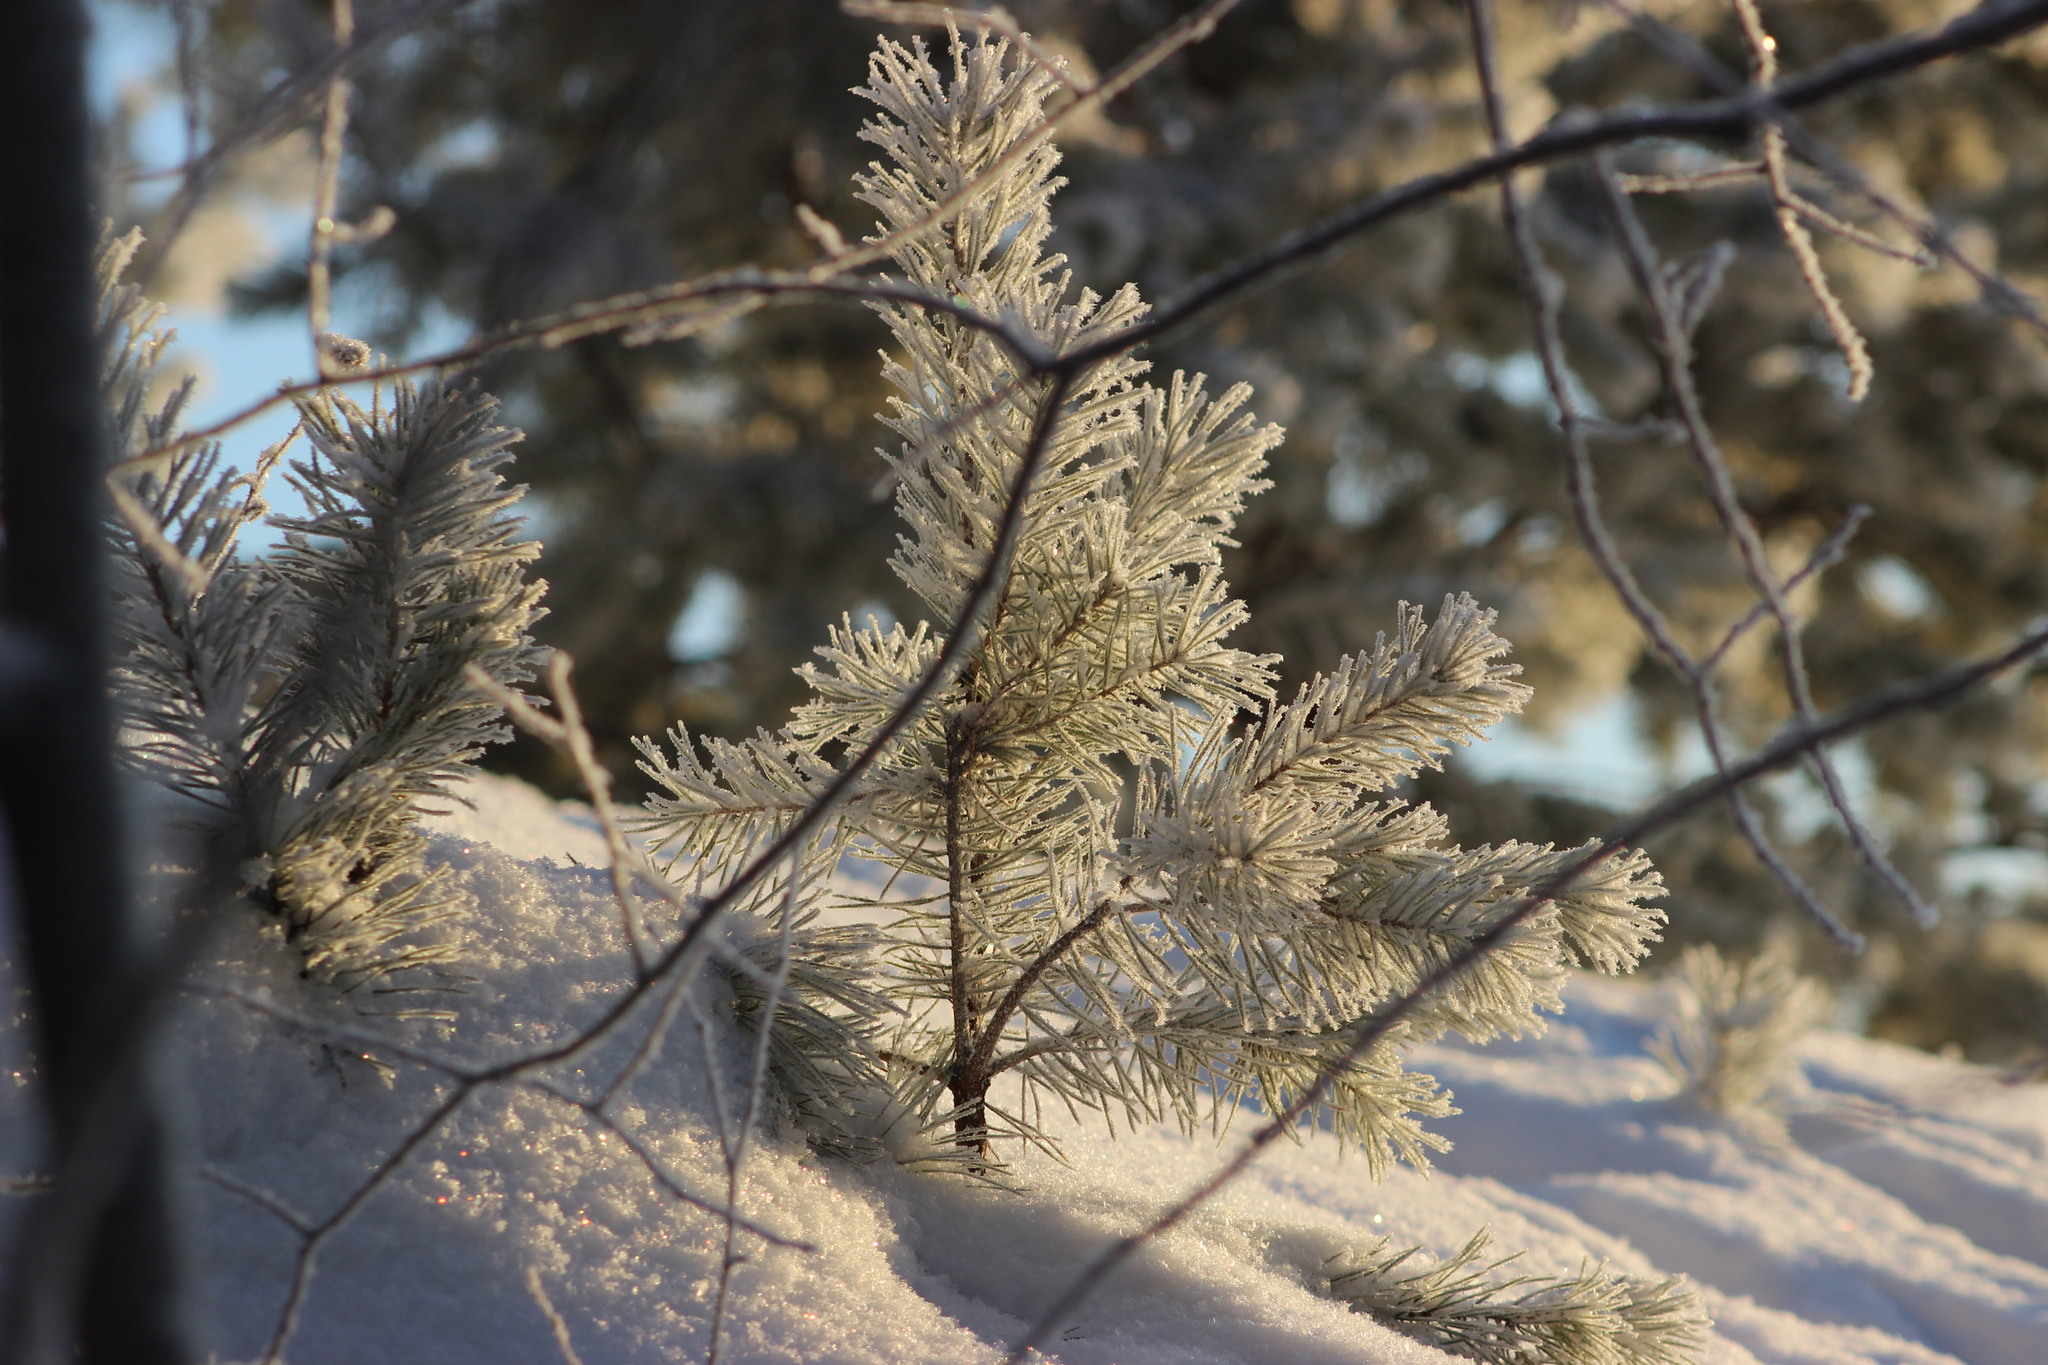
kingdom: Plantae
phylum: Tracheophyta
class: Pinopsida
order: Pinales
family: Pinaceae
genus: Pinus
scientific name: Pinus sylvestris
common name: Scots pine
